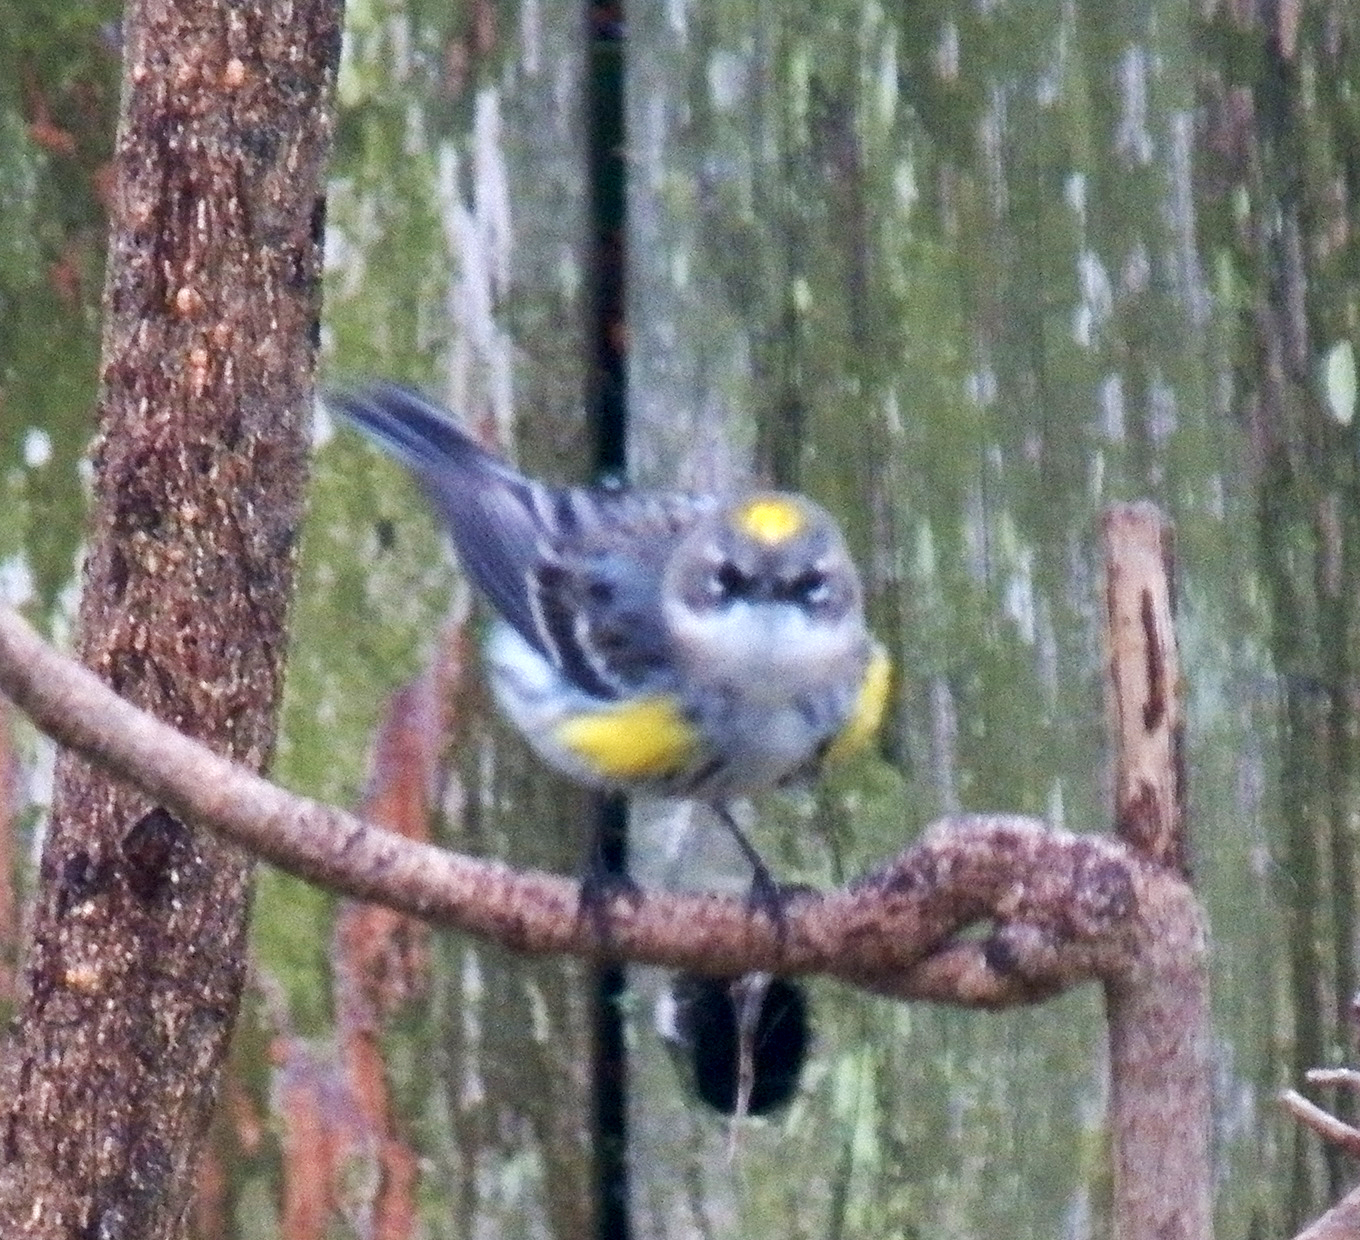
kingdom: Animalia
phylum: Chordata
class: Aves
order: Passeriformes
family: Parulidae
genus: Setophaga
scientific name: Setophaga coronata
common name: Myrtle warbler
